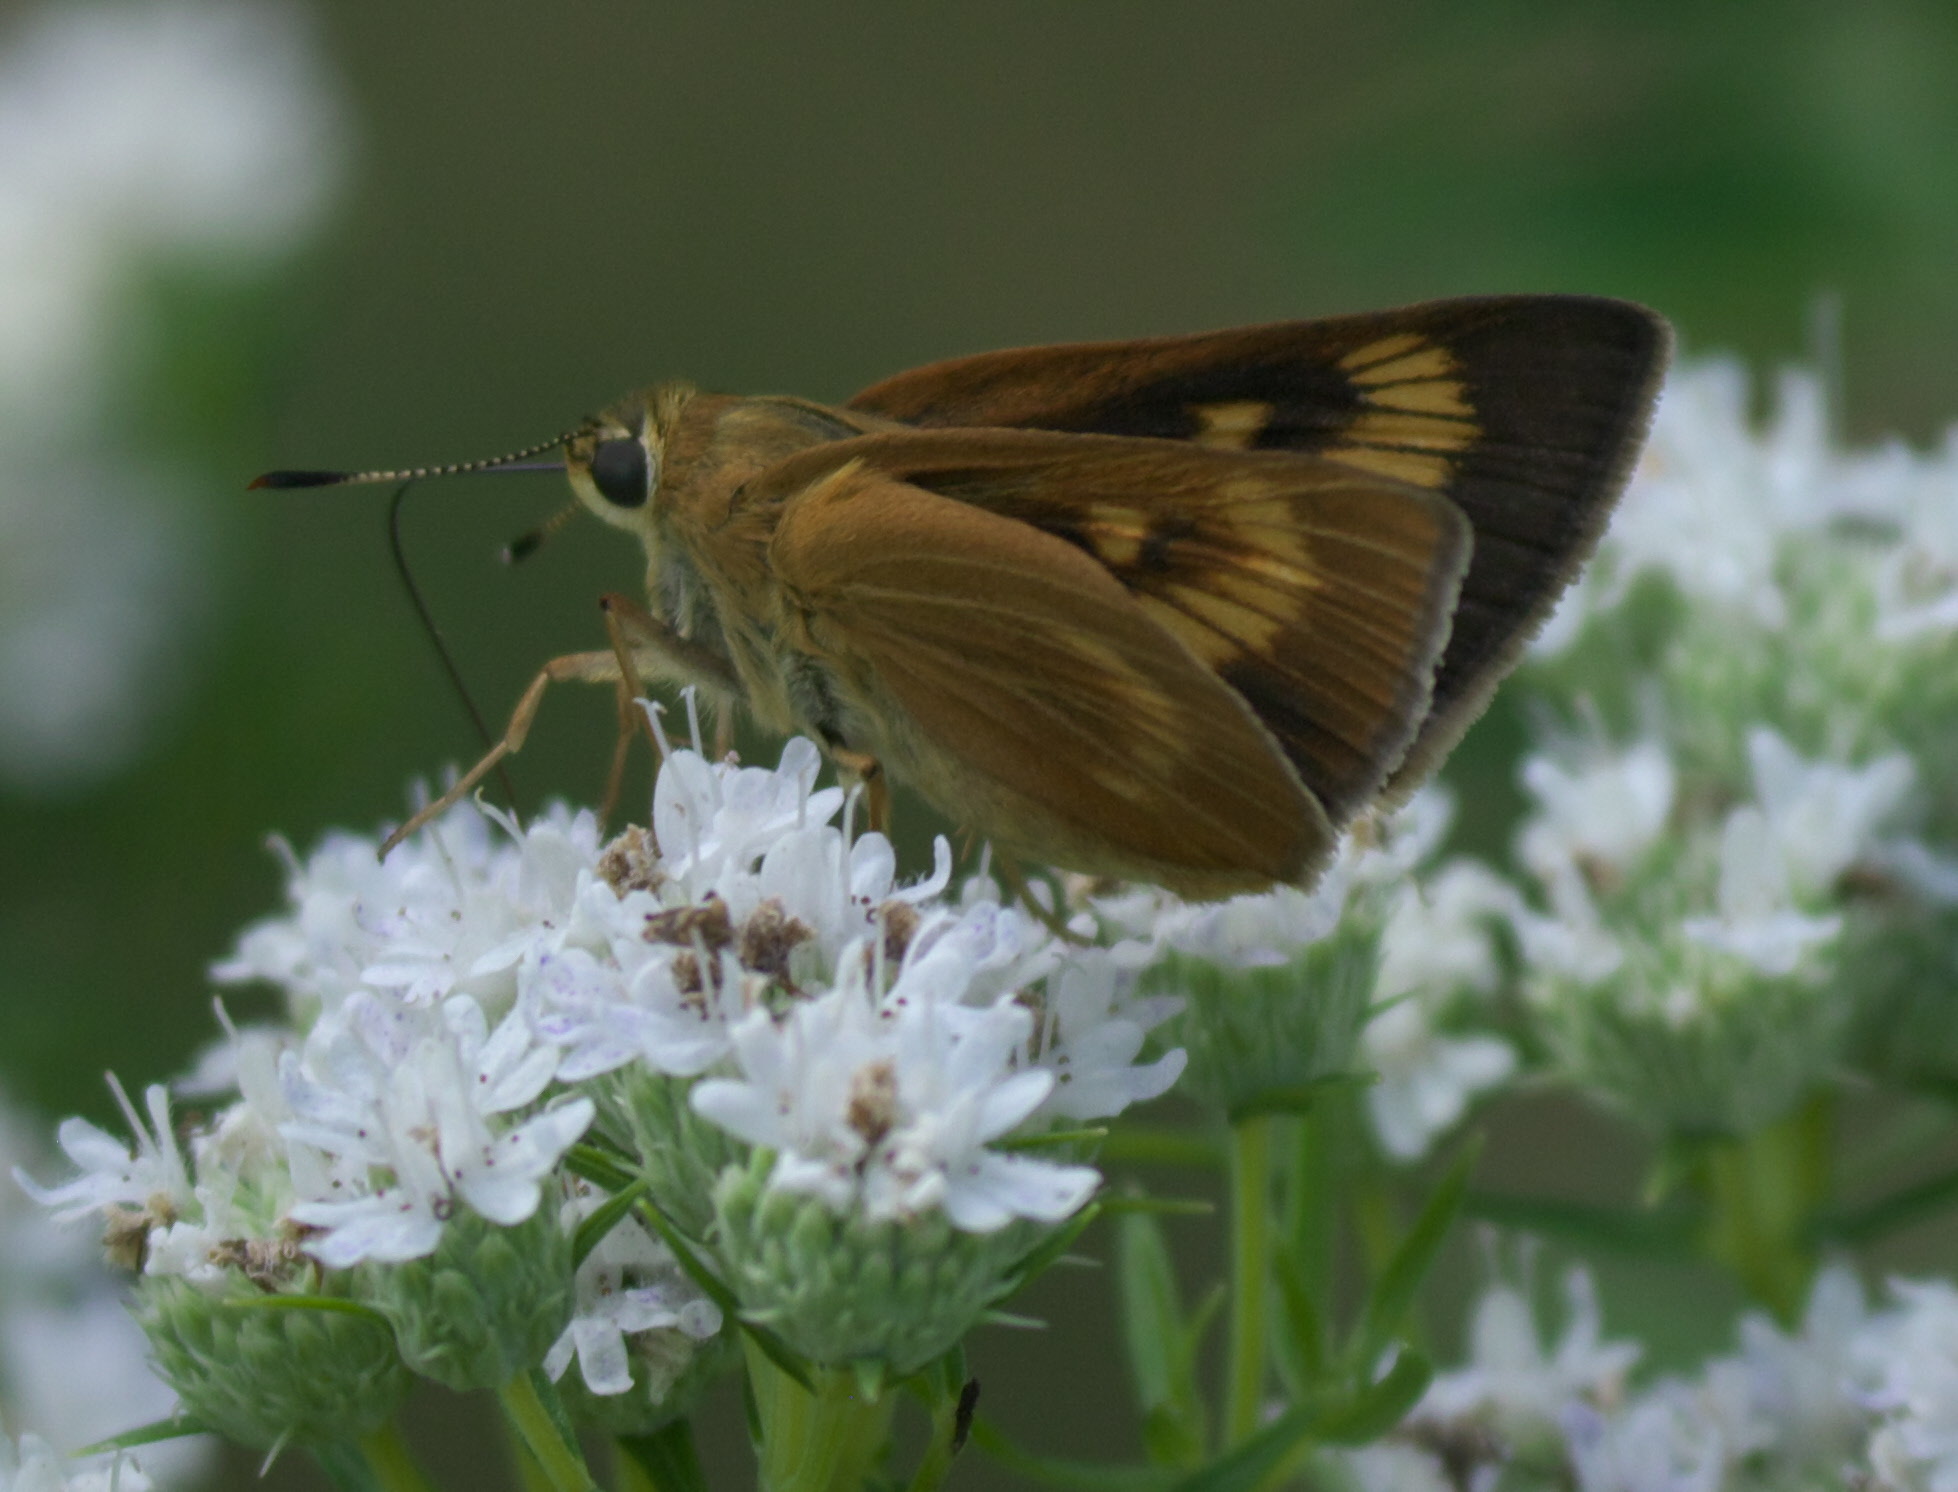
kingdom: Animalia
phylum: Arthropoda
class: Insecta
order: Lepidoptera
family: Hesperiidae
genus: Problema
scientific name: Problema byssus
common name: Byssus skipper
